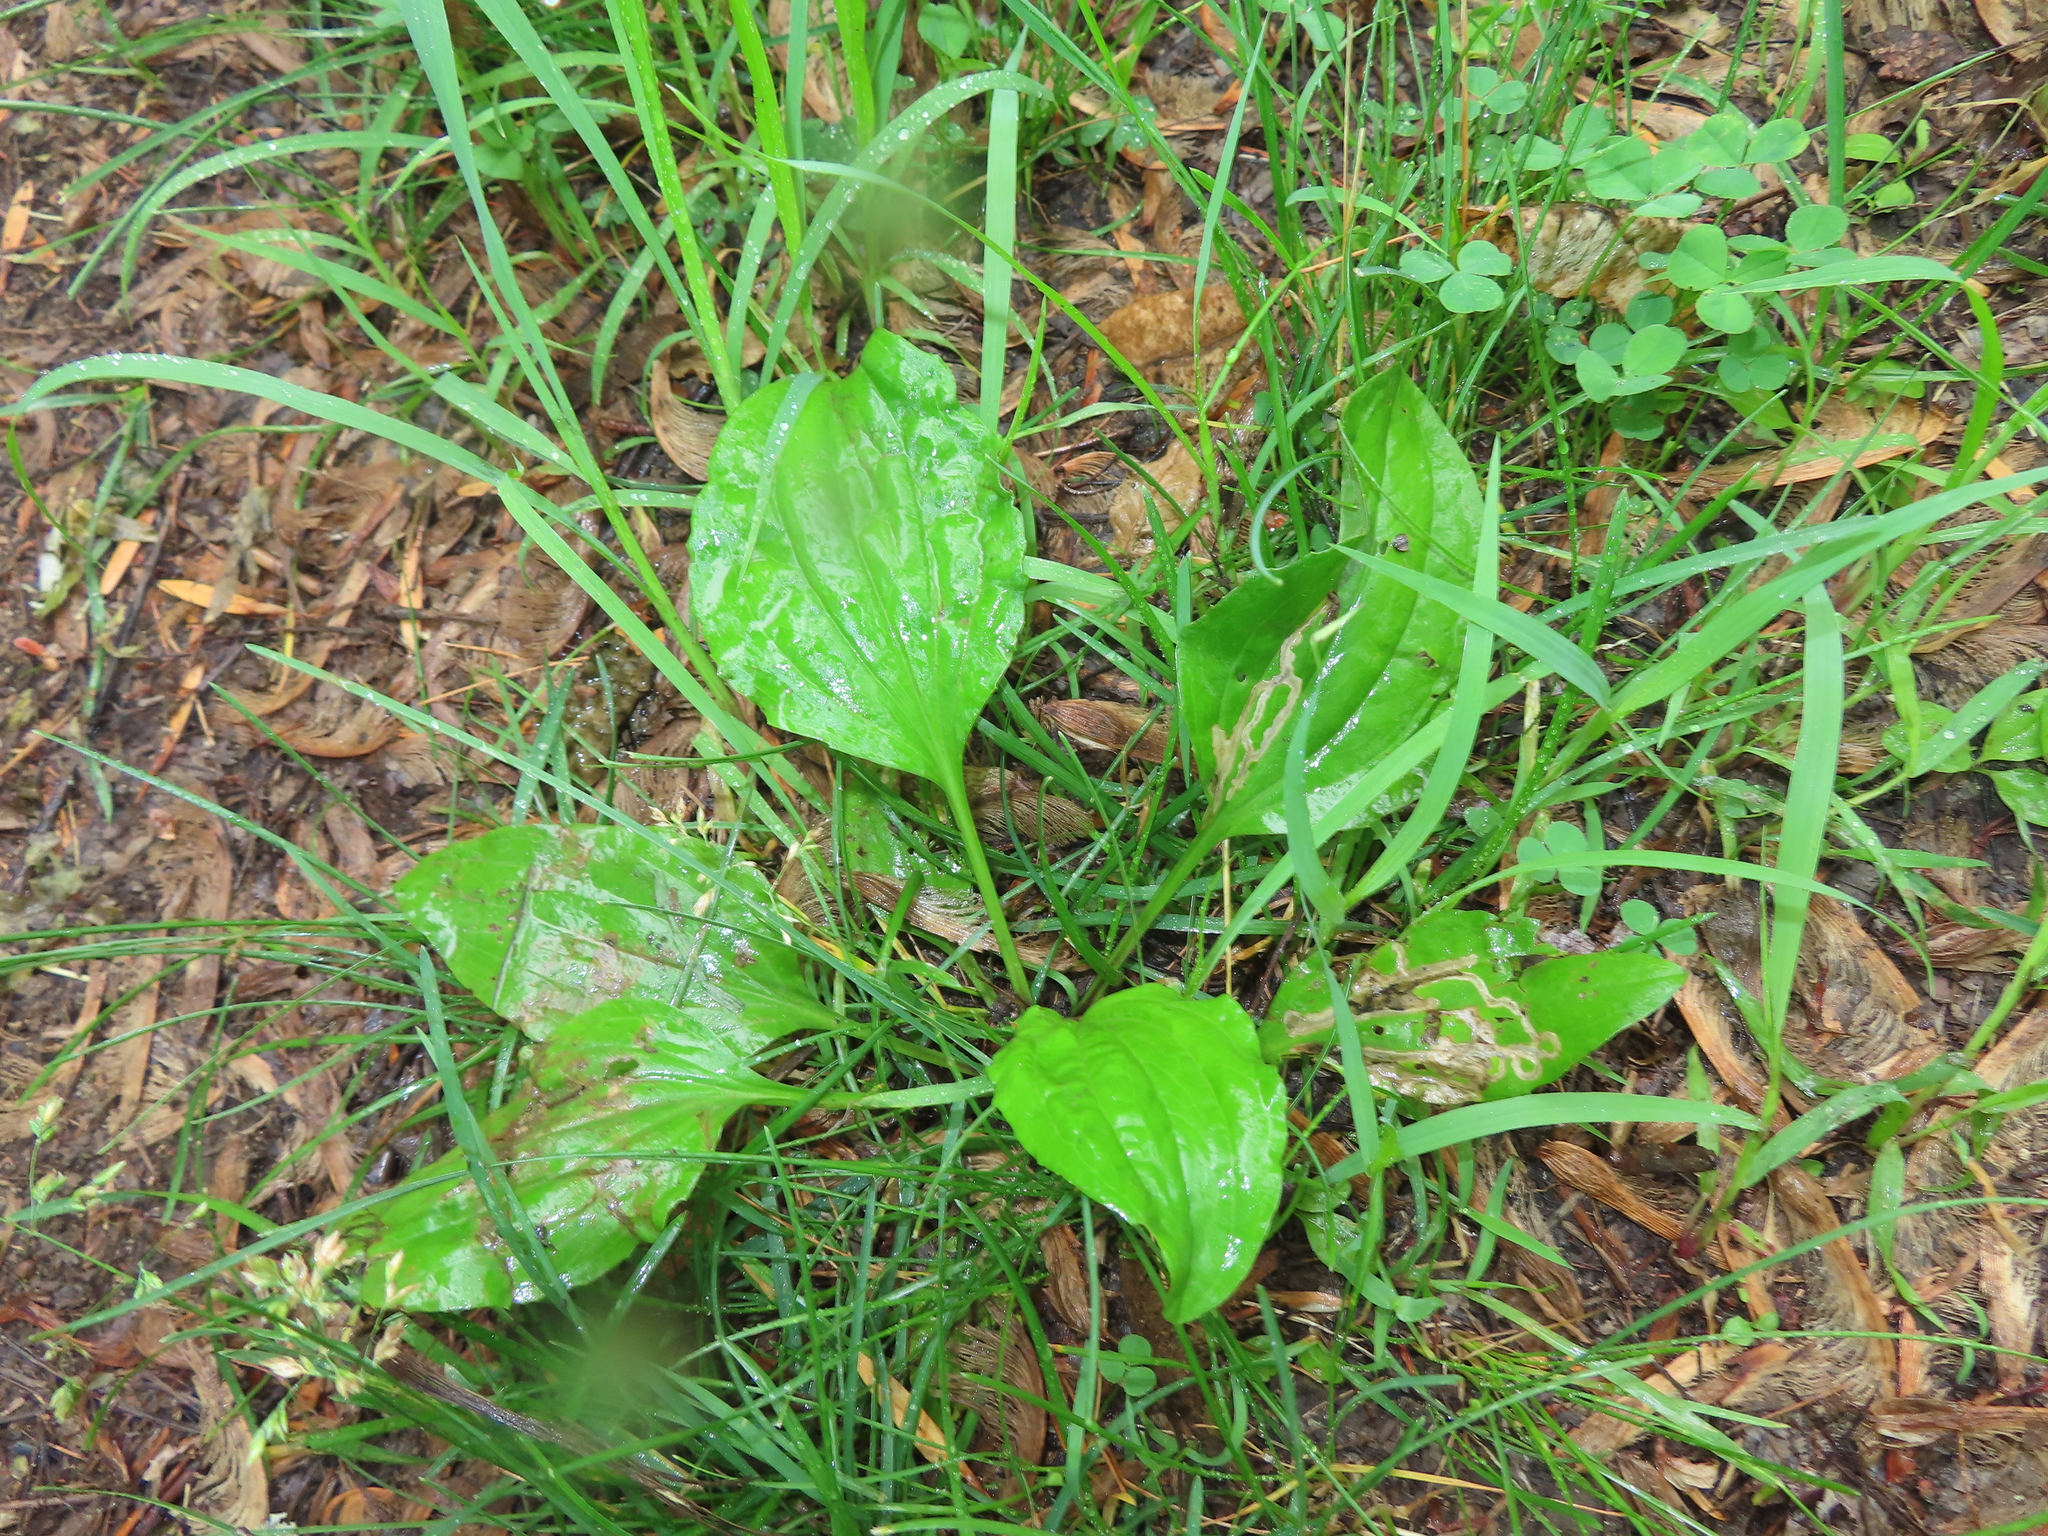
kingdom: Plantae
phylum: Tracheophyta
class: Magnoliopsida
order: Lamiales
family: Plantaginaceae
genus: Plantago
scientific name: Plantago rugelii
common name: American plantain
